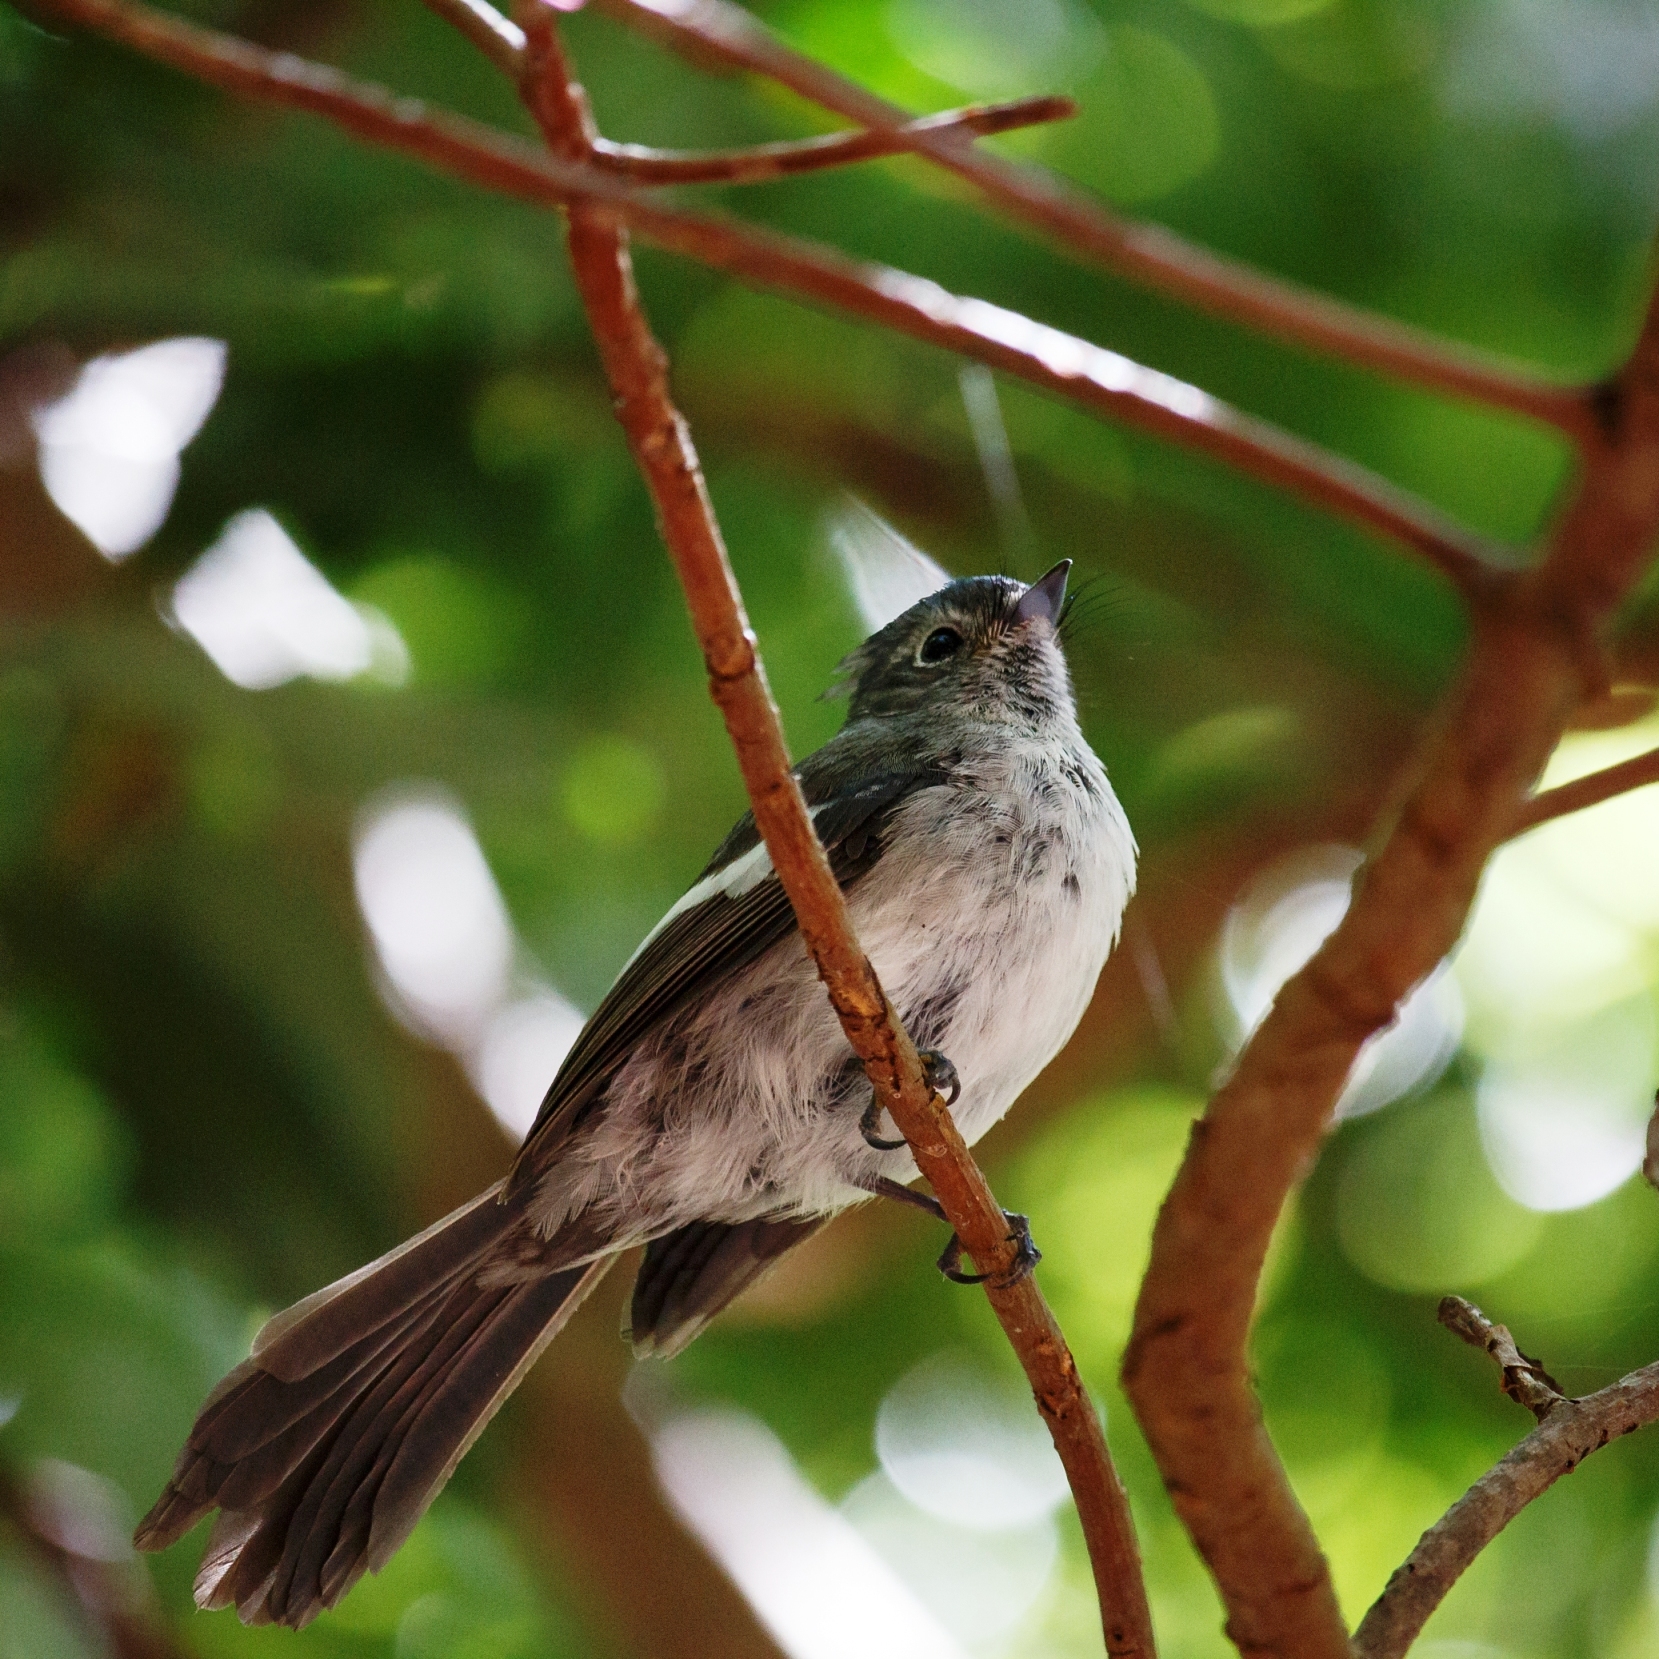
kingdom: Animalia
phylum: Chordata
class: Aves
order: Passeriformes
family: Monarchidae
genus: Trochocercus
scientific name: Trochocercus cyanomelas
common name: Blue-mantled crested flycatcher
